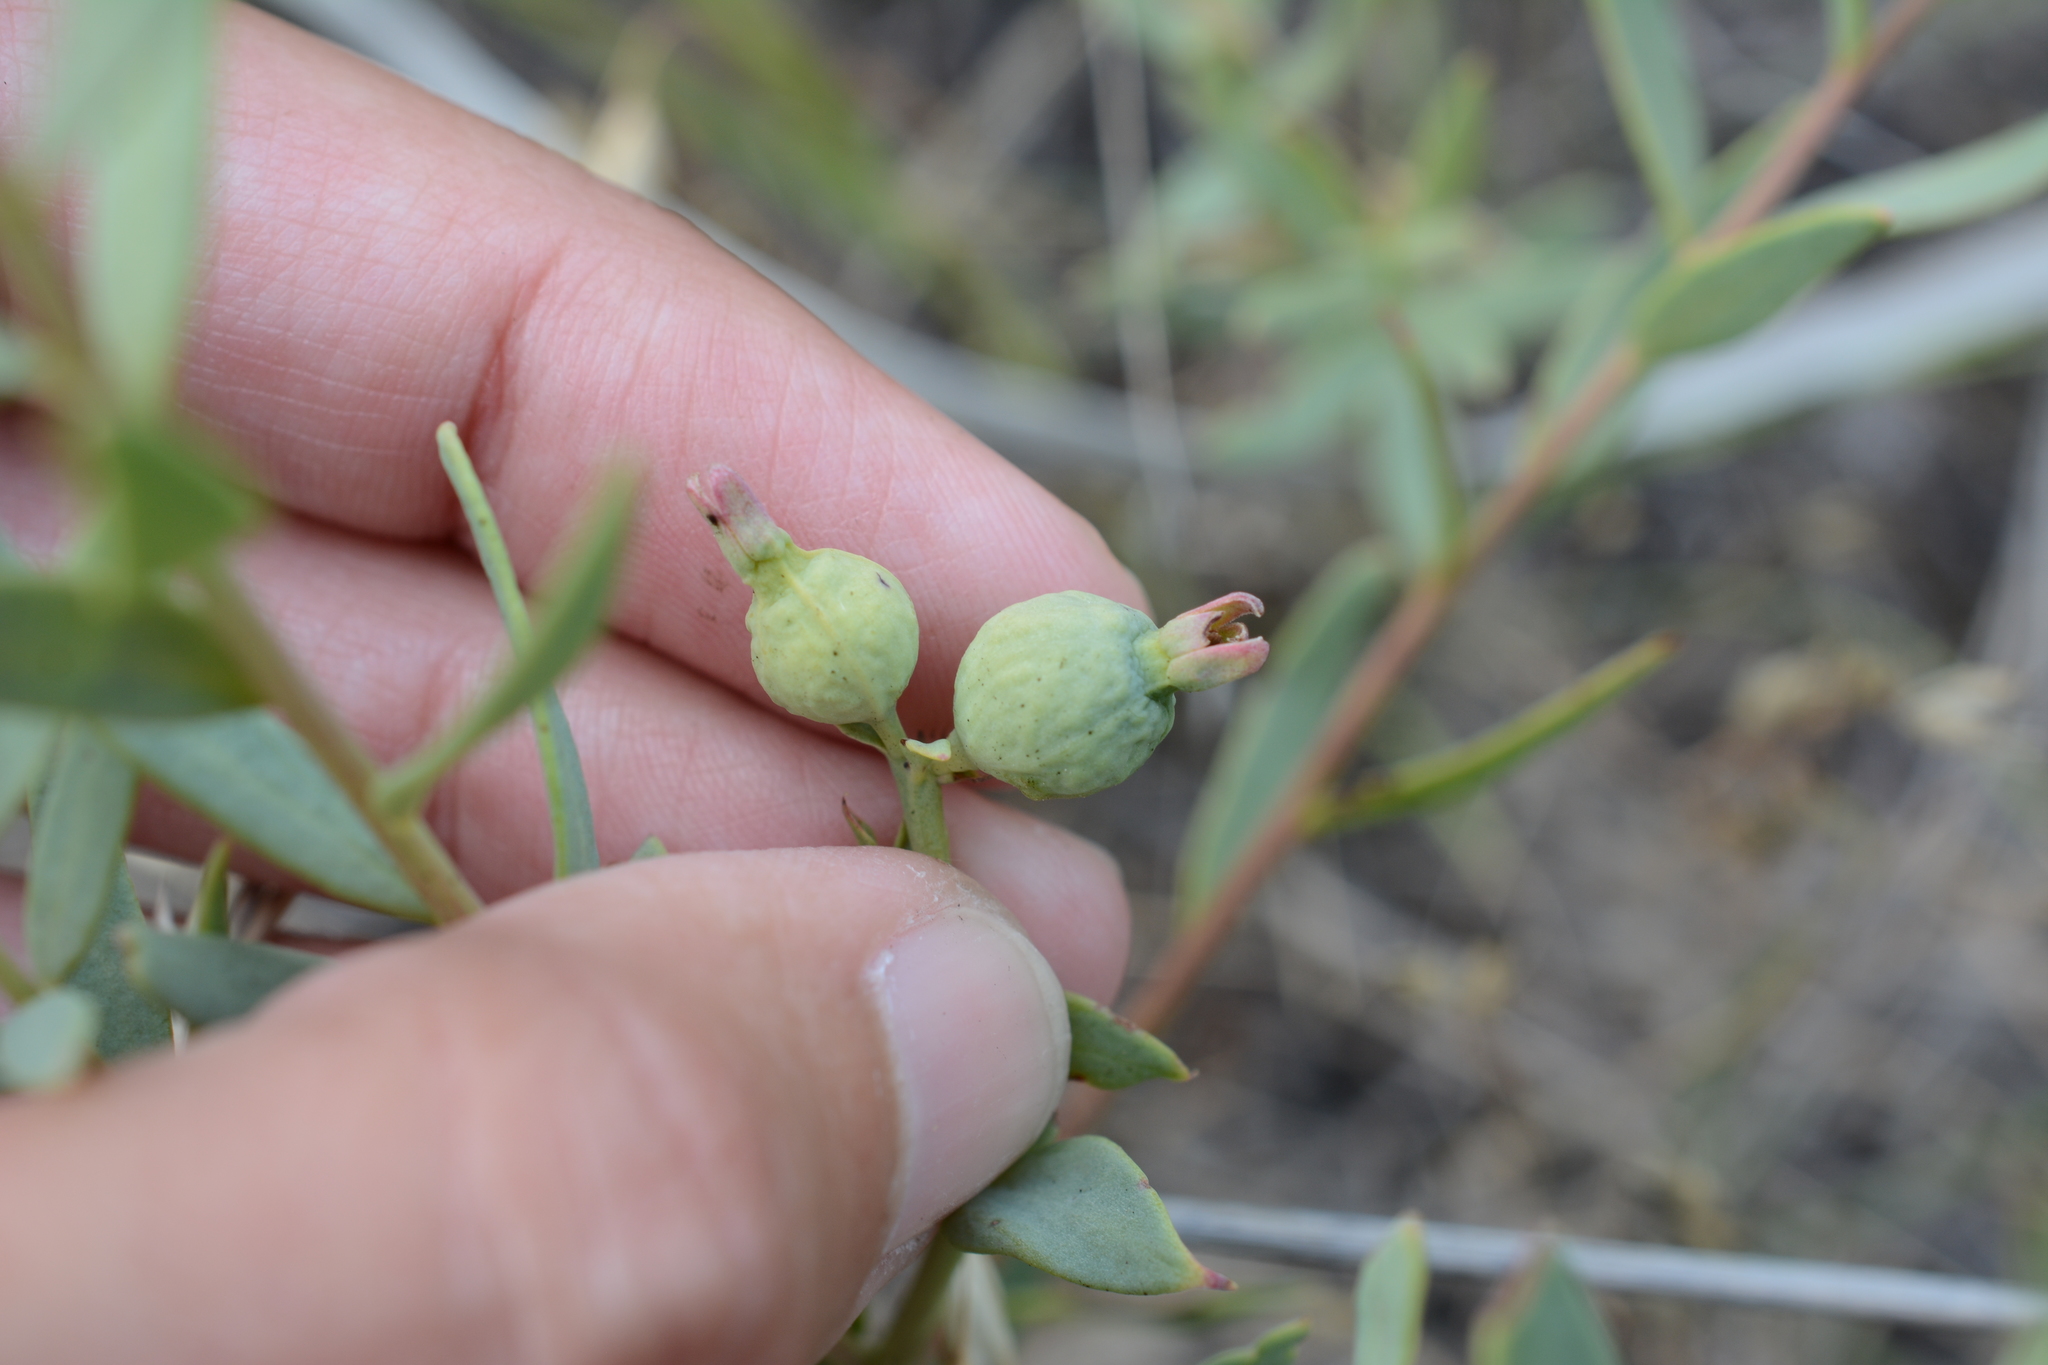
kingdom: Plantae
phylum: Tracheophyta
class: Magnoliopsida
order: Santalales
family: Comandraceae
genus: Comandra
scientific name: Comandra umbellata
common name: Bastard toadflax
